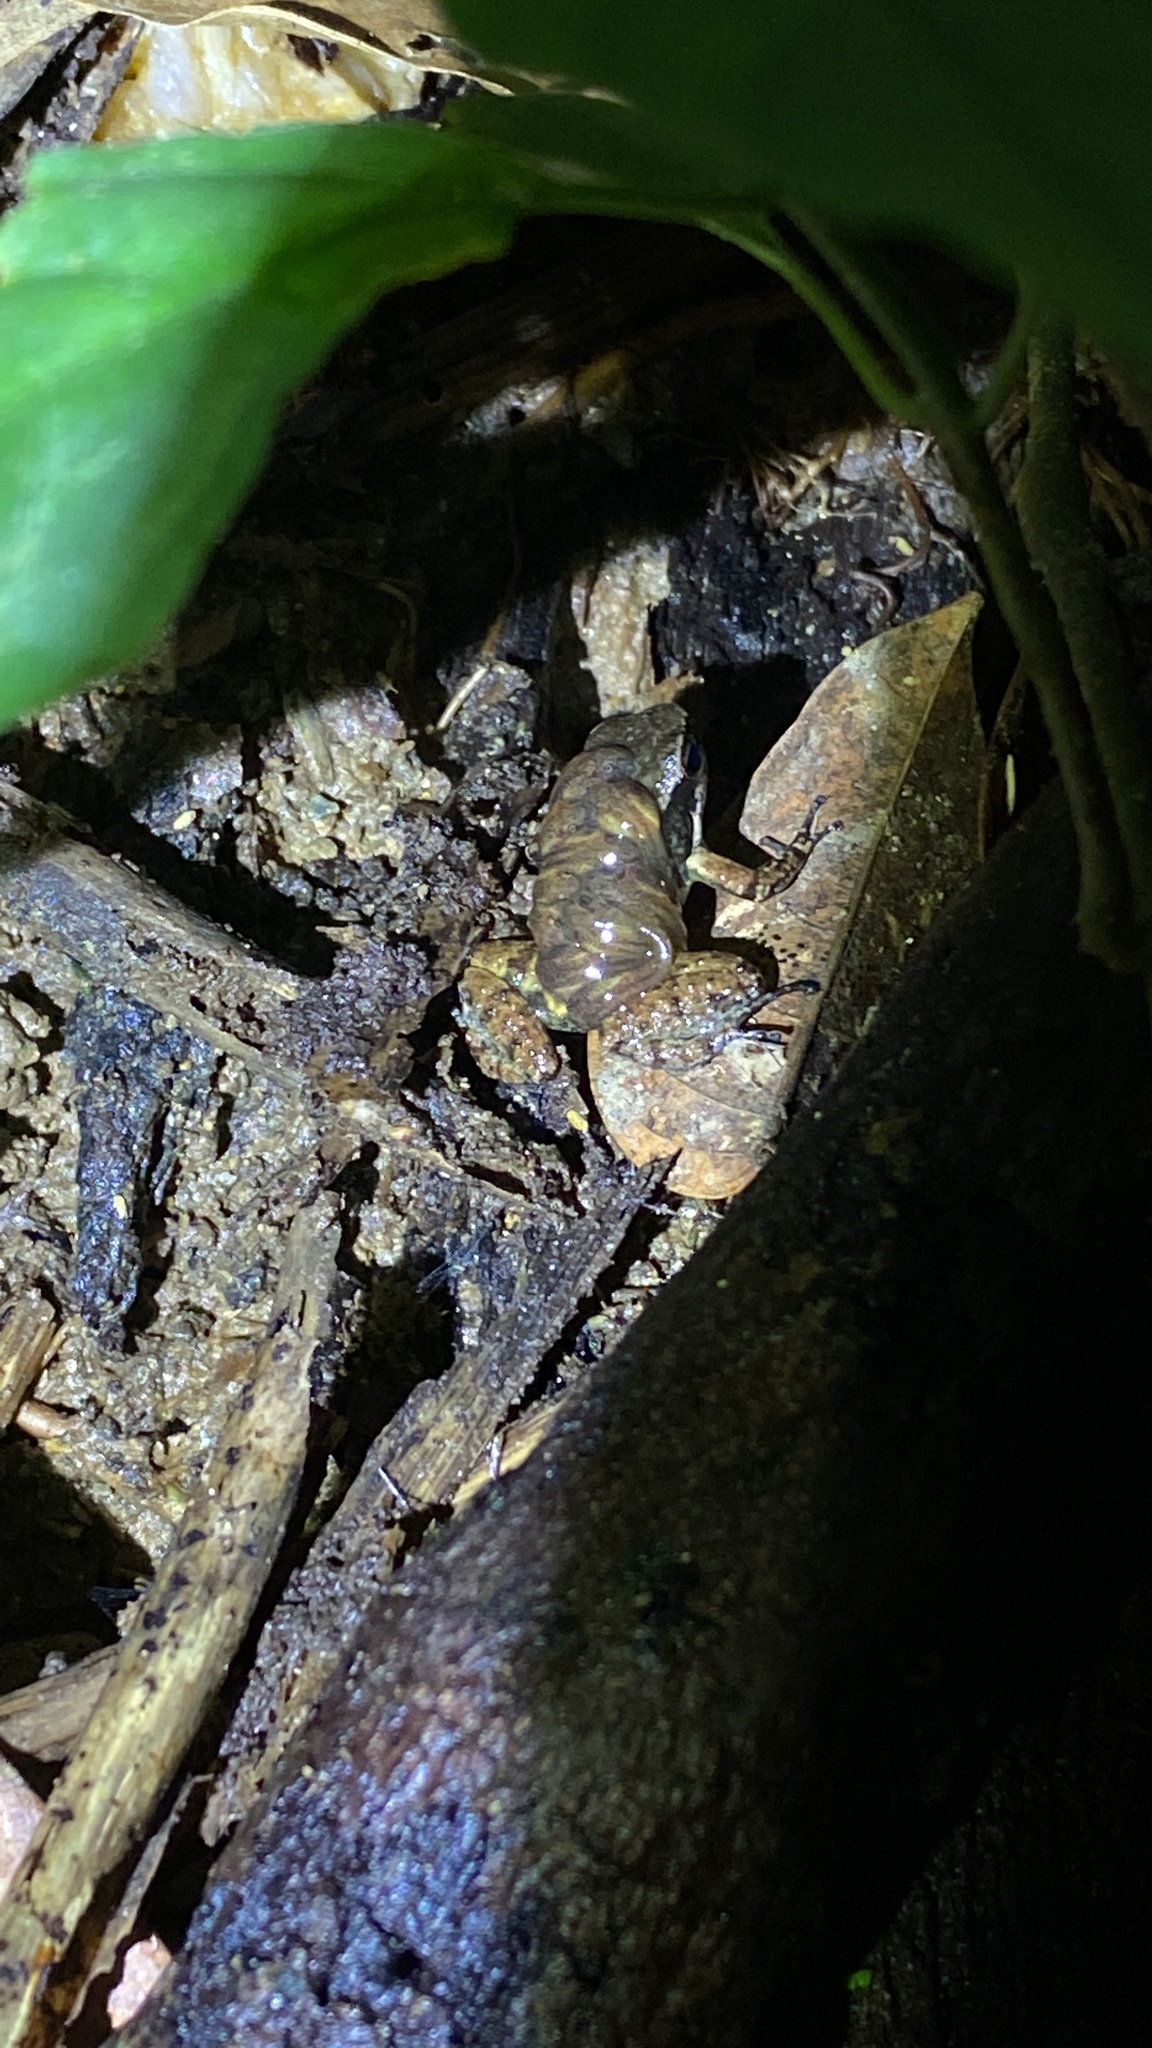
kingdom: Animalia
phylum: Chordata
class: Amphibia
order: Anura
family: Aromobatidae
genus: Mannophryne
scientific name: Mannophryne trinitatis
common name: Trinidad poison frog
